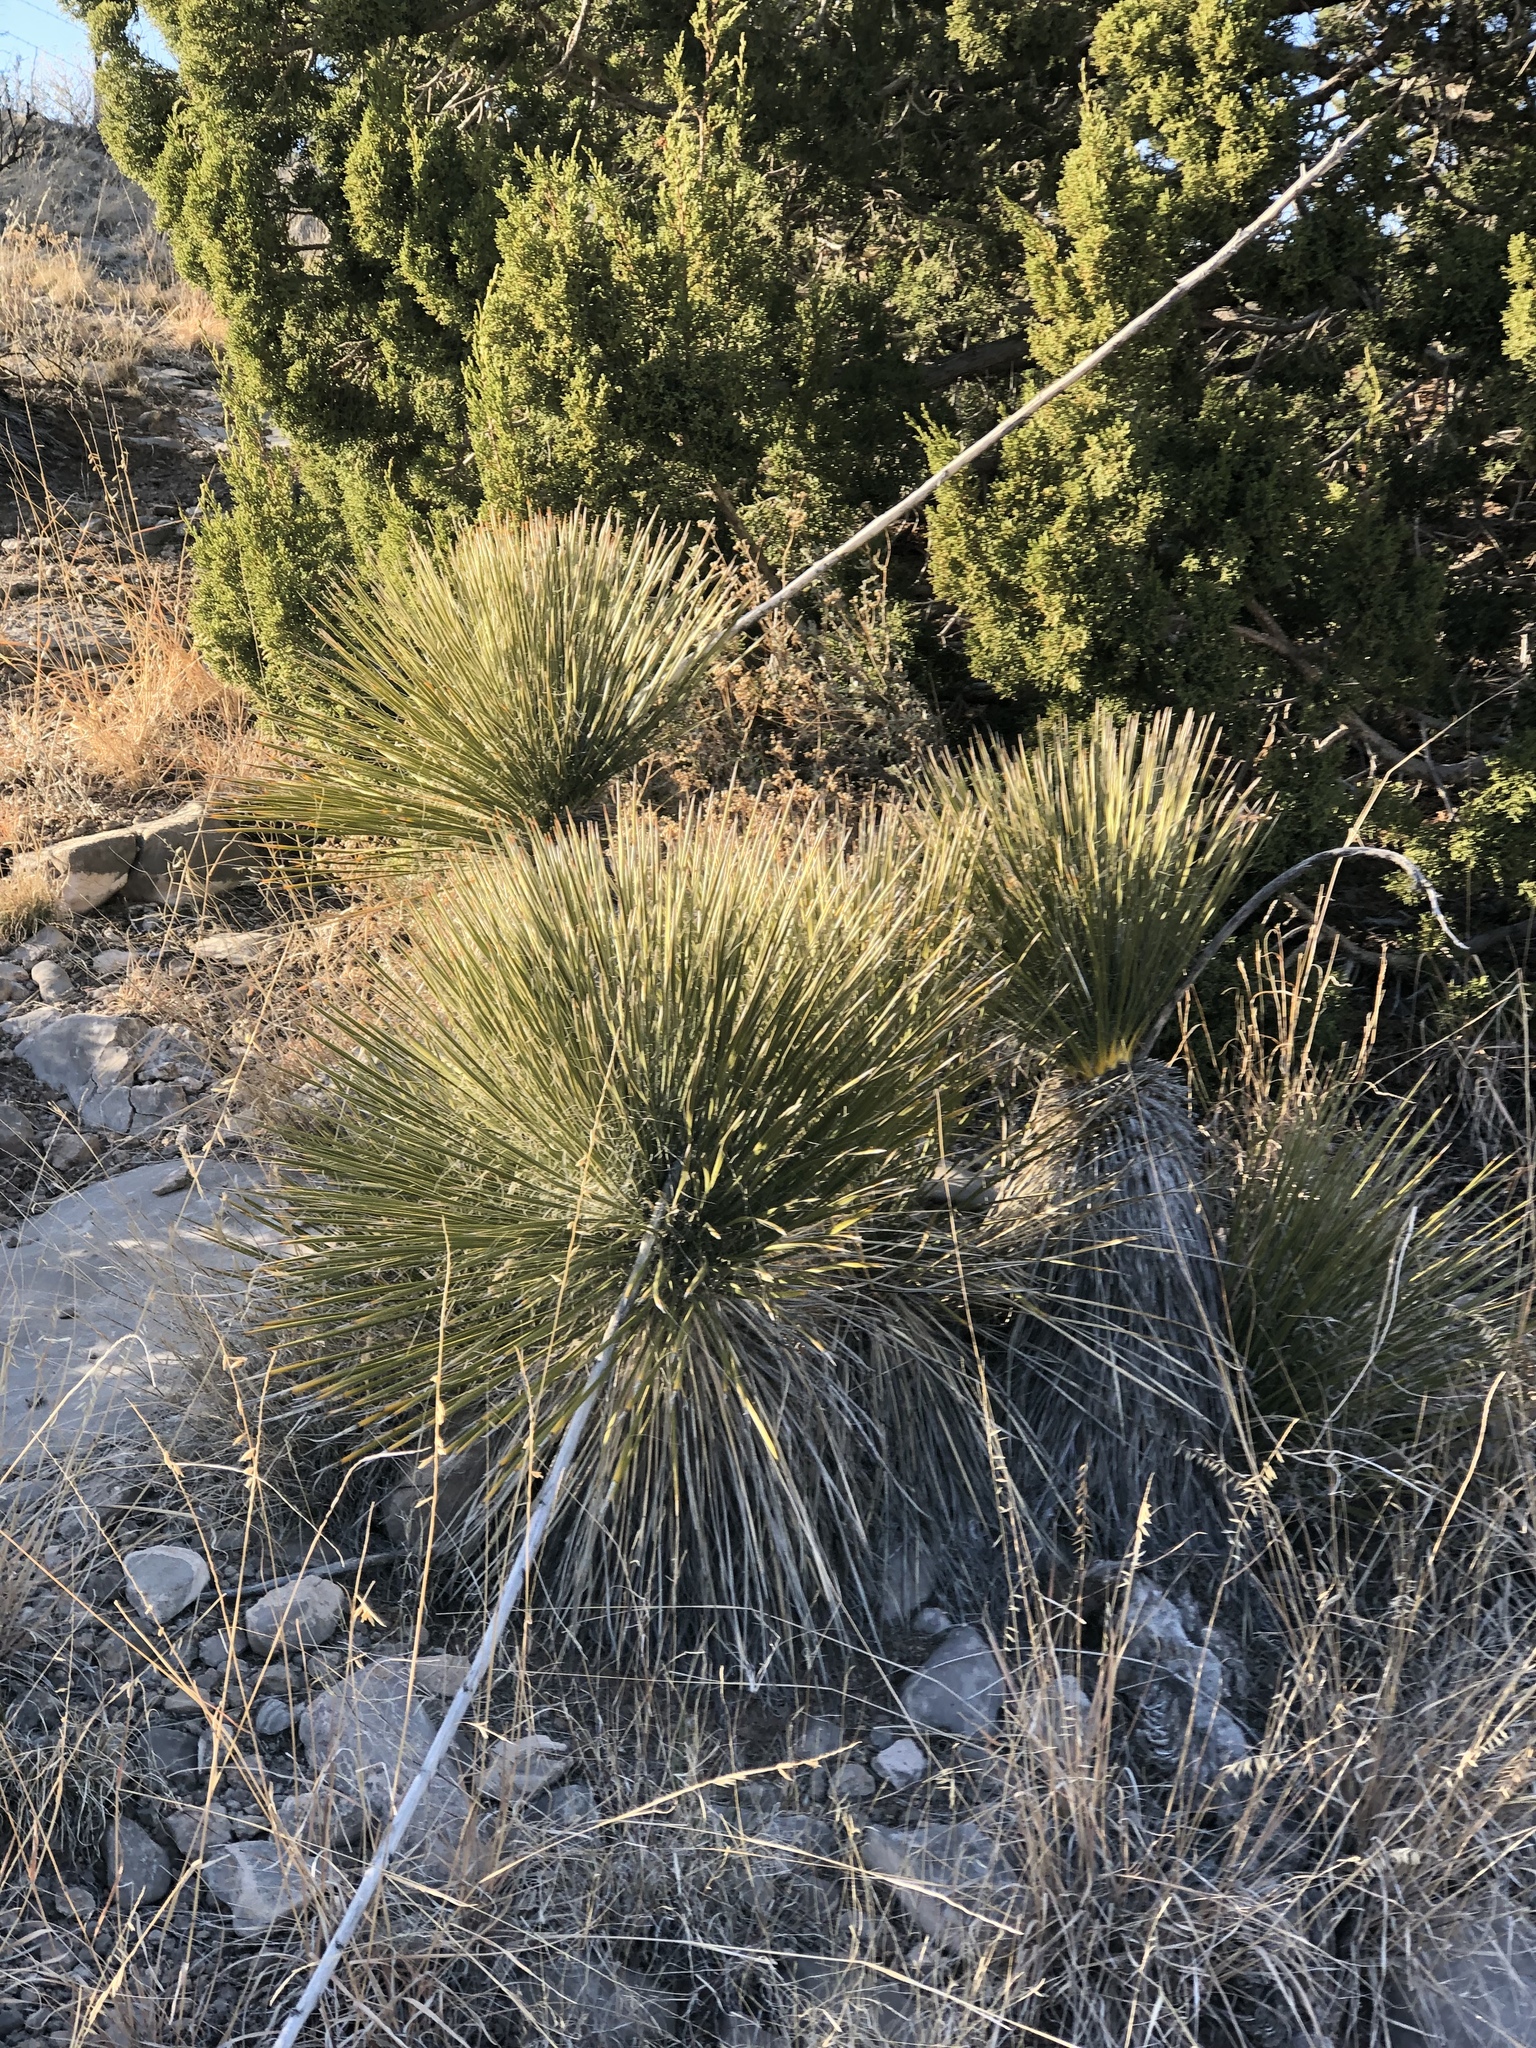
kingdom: Plantae
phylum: Tracheophyta
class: Liliopsida
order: Asparagales
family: Asparagaceae
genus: Yucca
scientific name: Yucca elata
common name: Palmella
